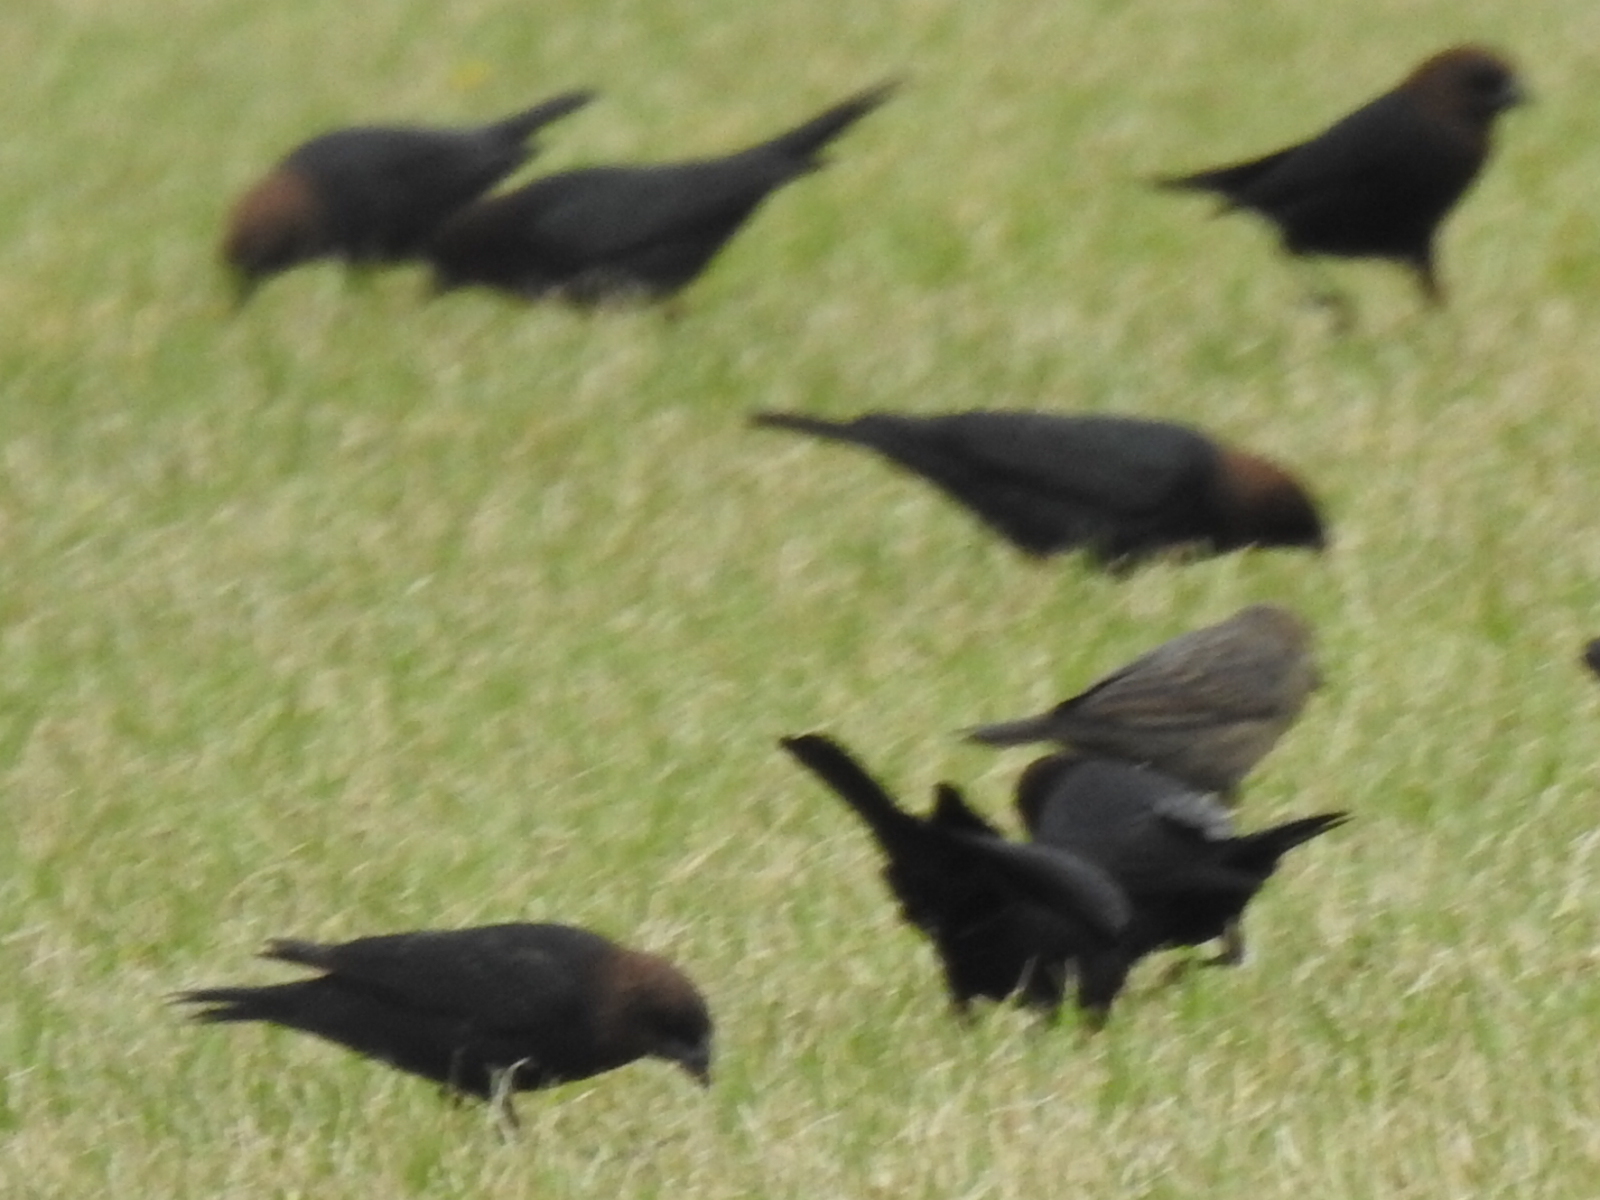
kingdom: Animalia
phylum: Chordata
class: Aves
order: Passeriformes
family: Icteridae
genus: Molothrus
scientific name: Molothrus ater
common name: Brown-headed cowbird
